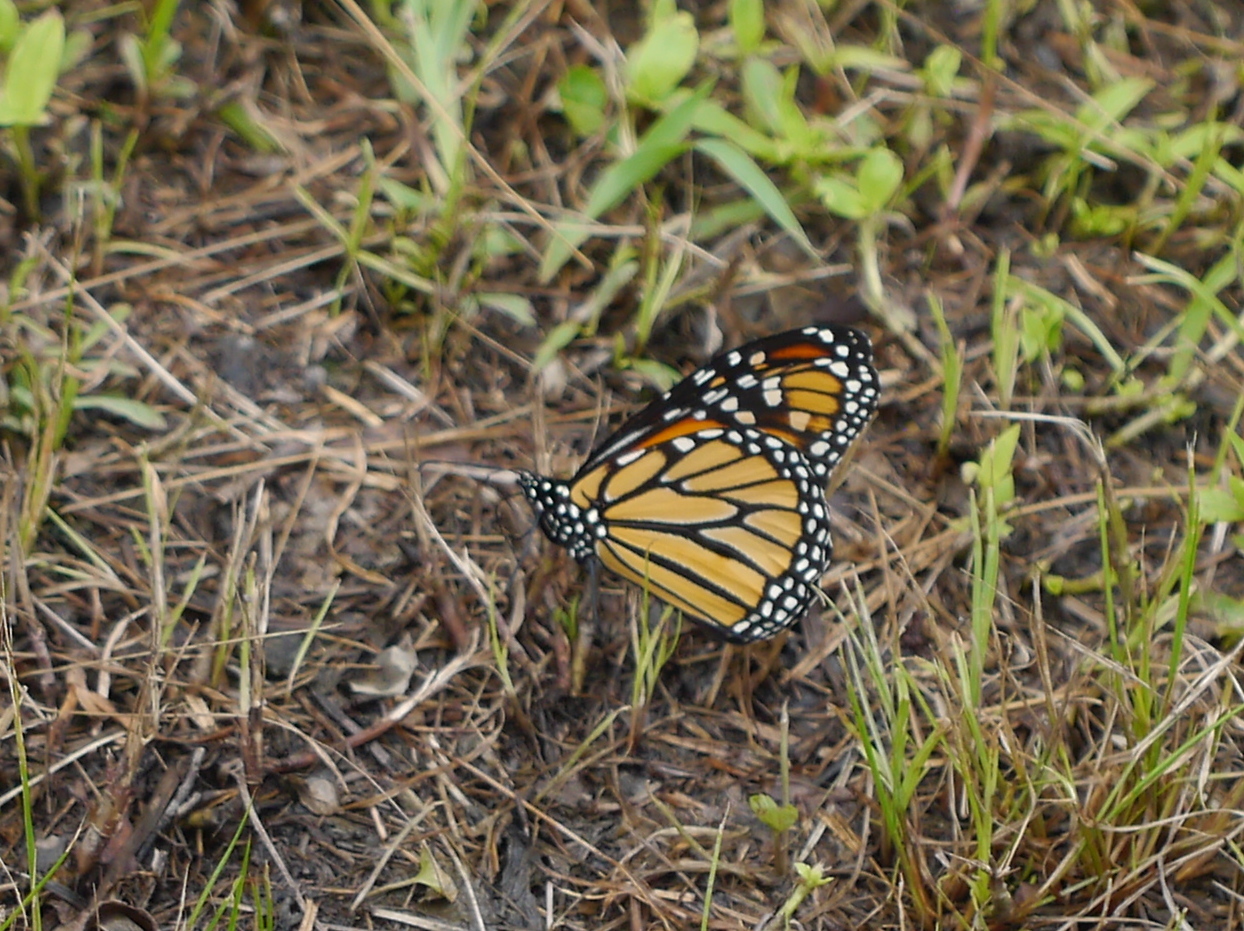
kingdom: Animalia
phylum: Arthropoda
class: Insecta
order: Lepidoptera
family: Nymphalidae
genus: Danaus
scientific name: Danaus plexippus
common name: Monarch
